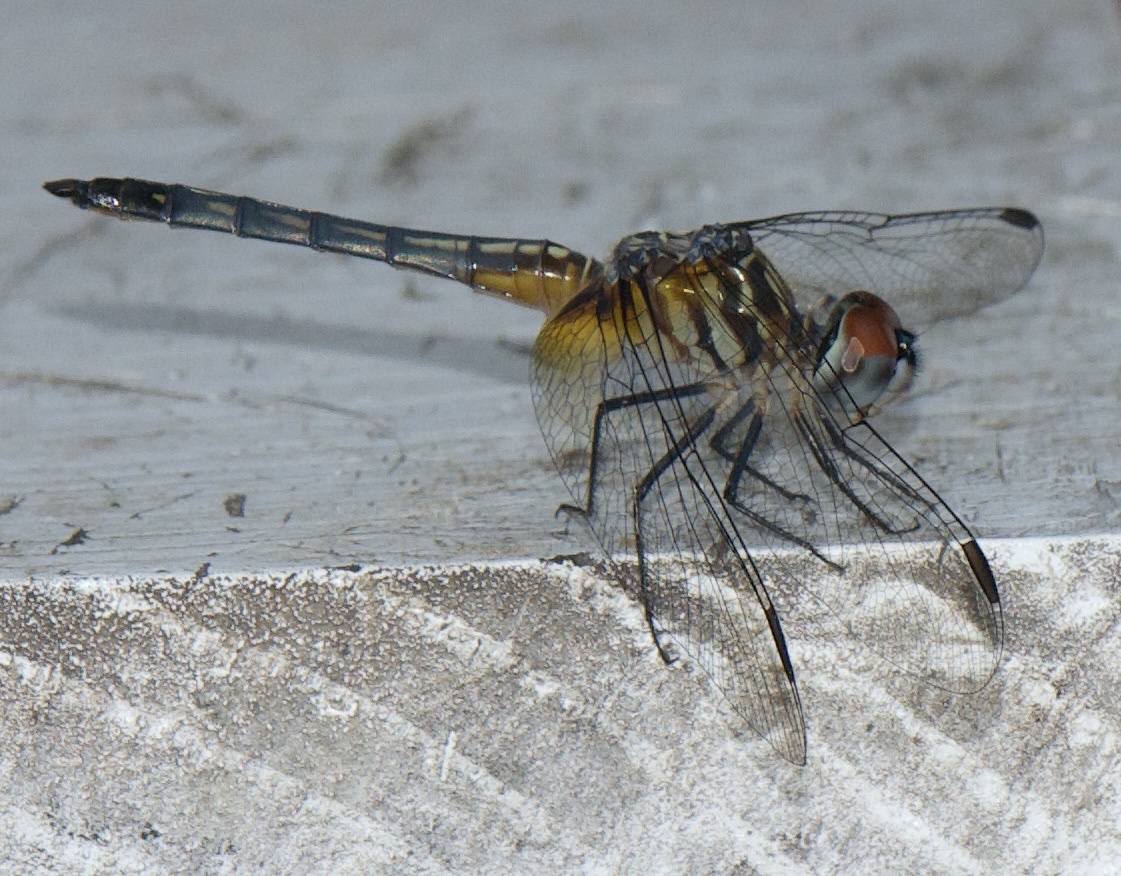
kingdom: Animalia
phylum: Arthropoda
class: Insecta
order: Odonata
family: Libellulidae
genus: Pachydiplax
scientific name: Pachydiplax longipennis
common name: Blue dasher
